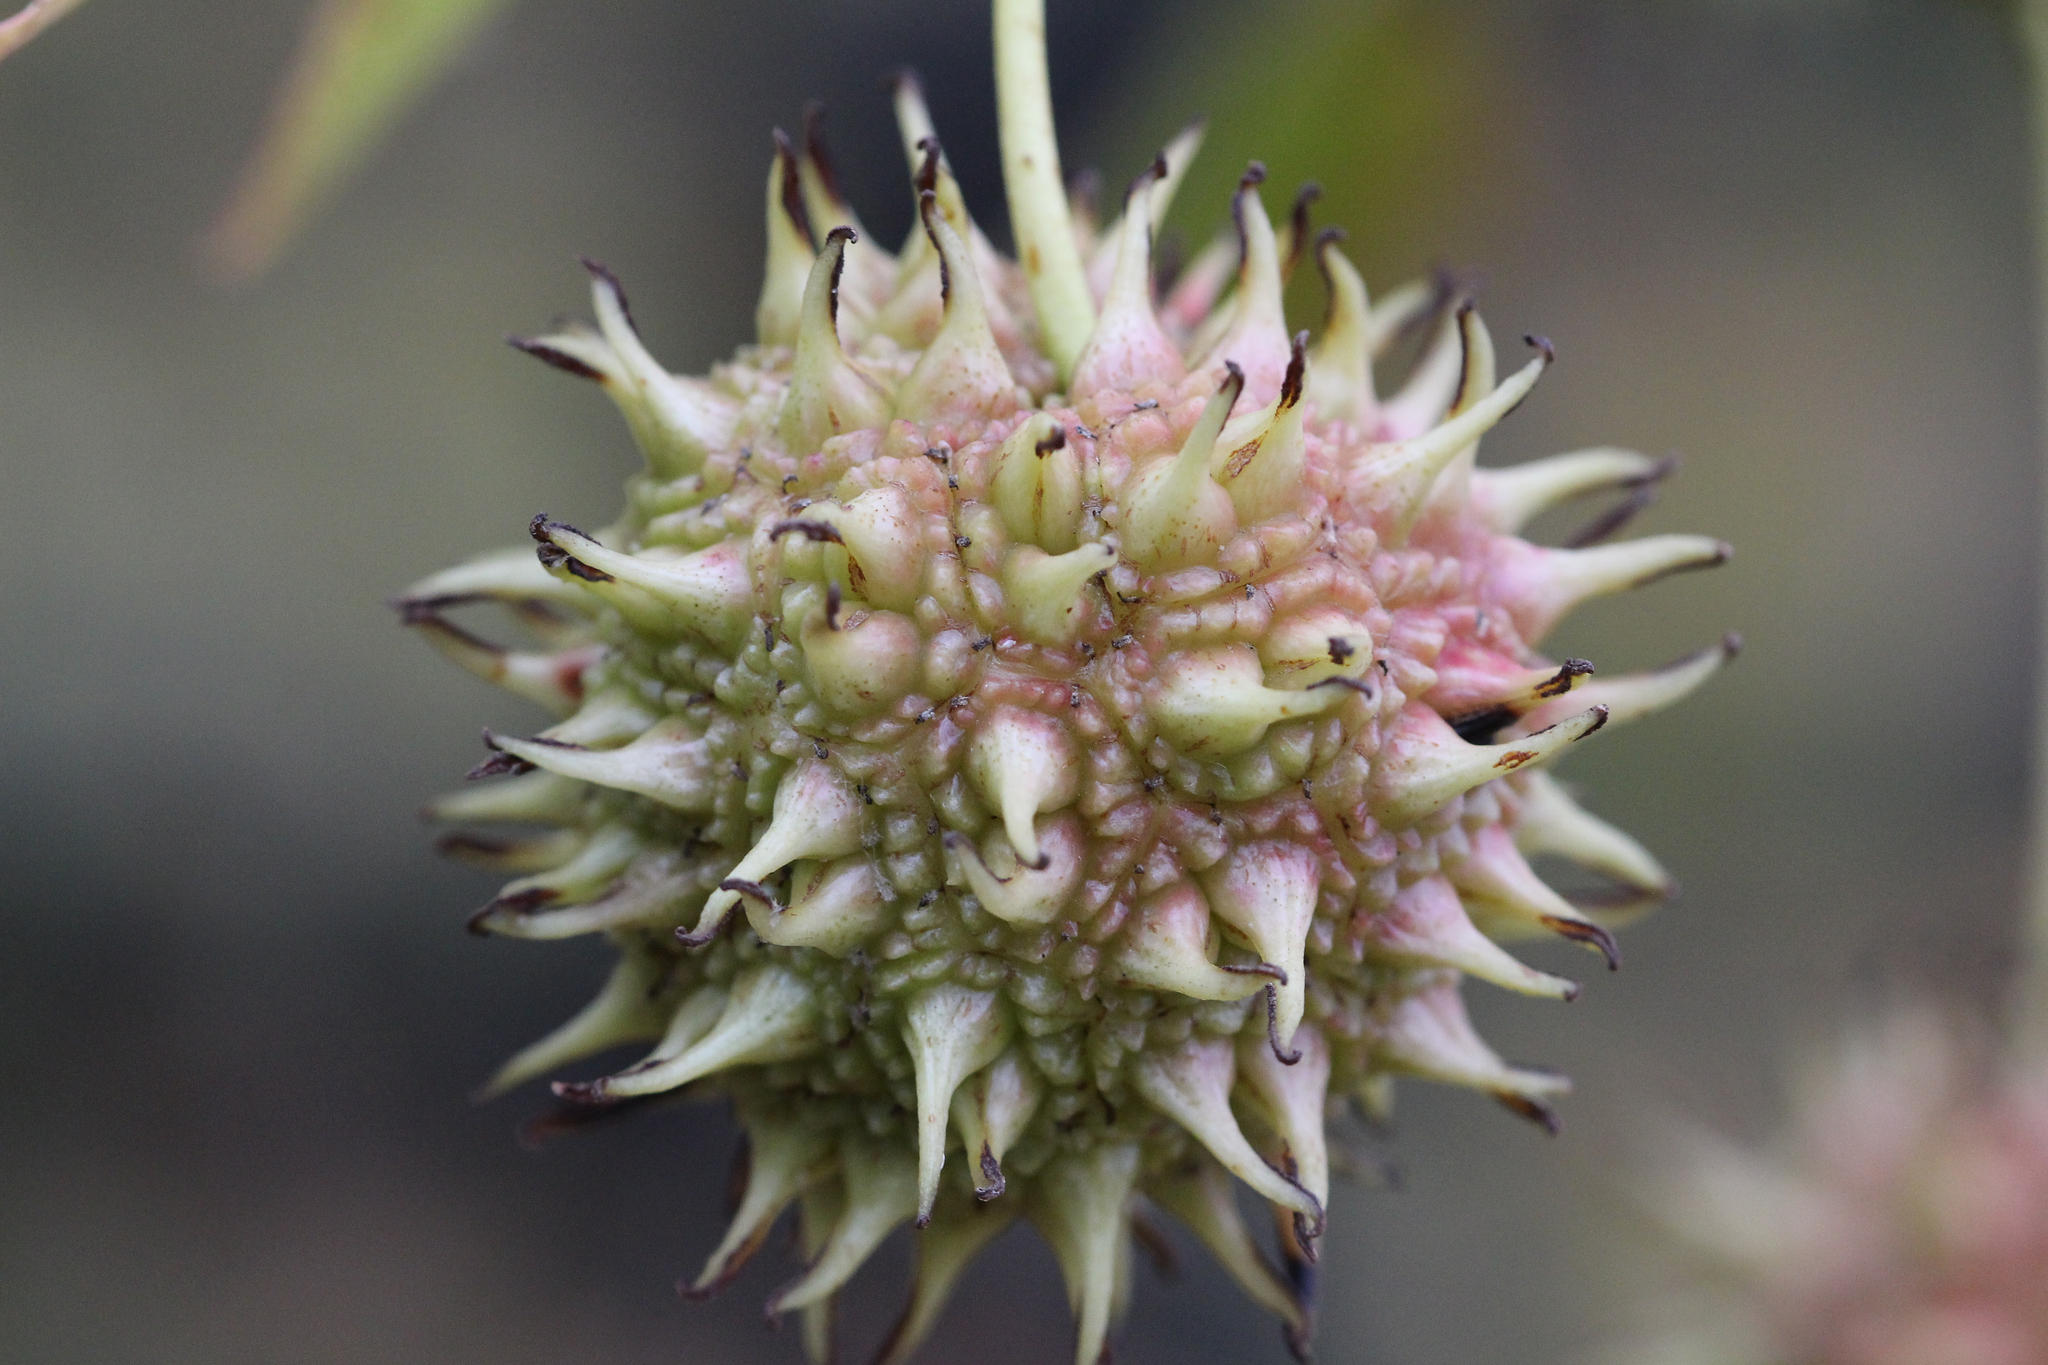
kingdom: Plantae
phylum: Tracheophyta
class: Magnoliopsida
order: Saxifragales
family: Altingiaceae
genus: Liquidambar
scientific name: Liquidambar styraciflua
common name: Sweet gum
